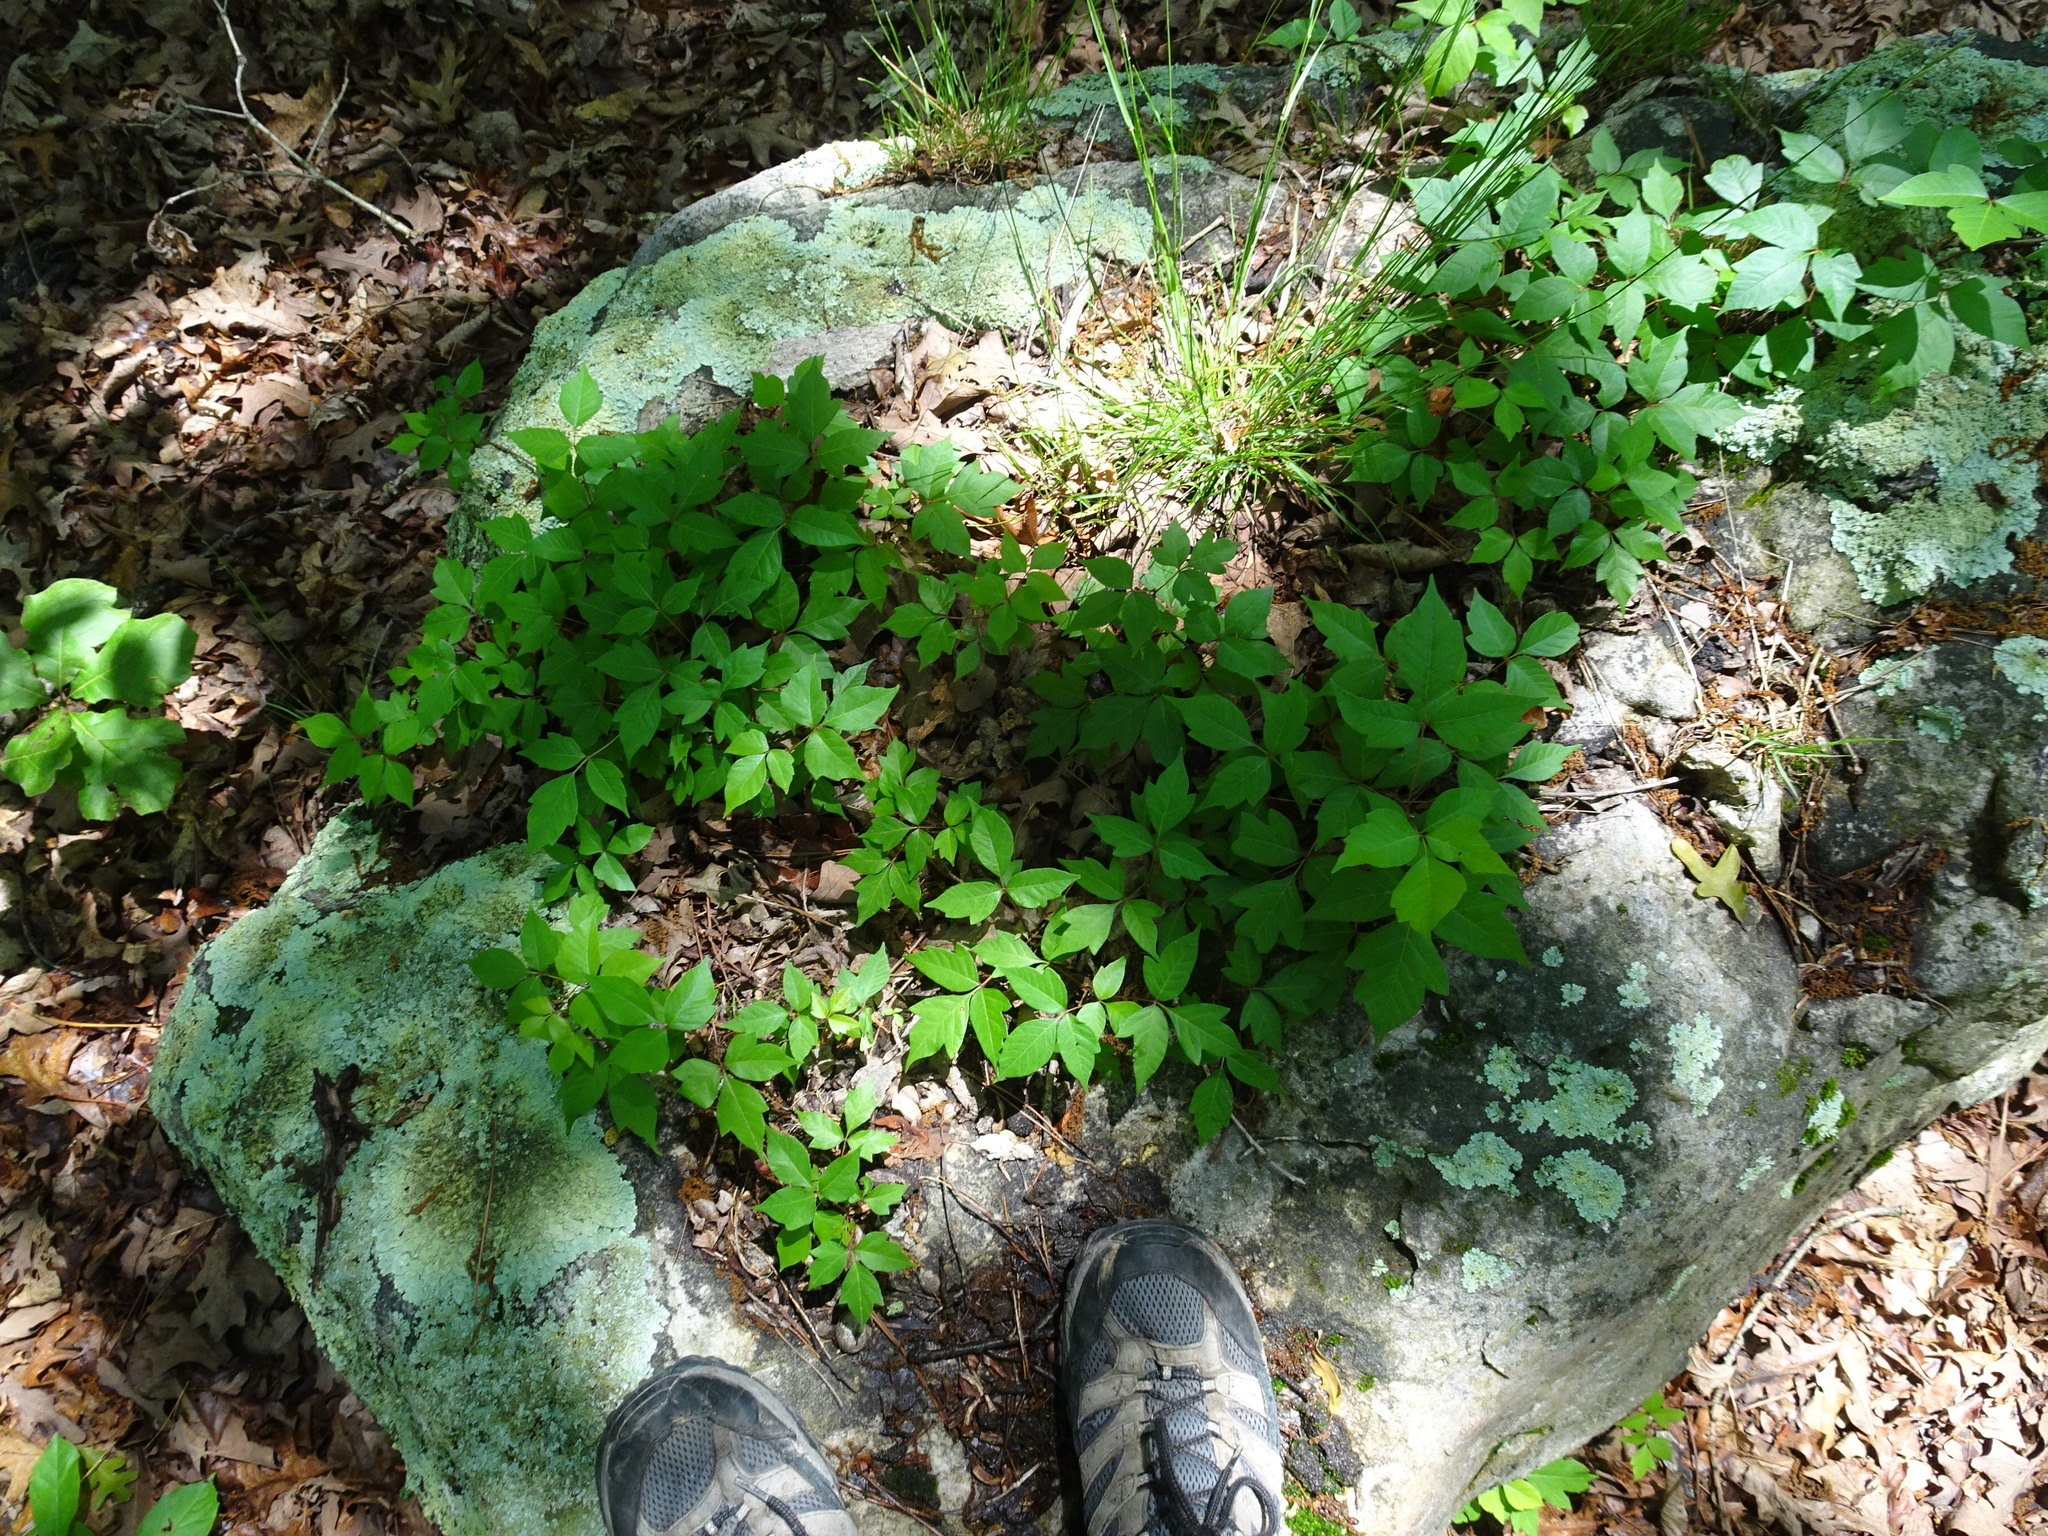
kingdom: Plantae
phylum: Tracheophyta
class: Magnoliopsida
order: Sapindales
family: Anacardiaceae
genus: Toxicodendron
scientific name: Toxicodendron radicans
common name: Poison ivy
